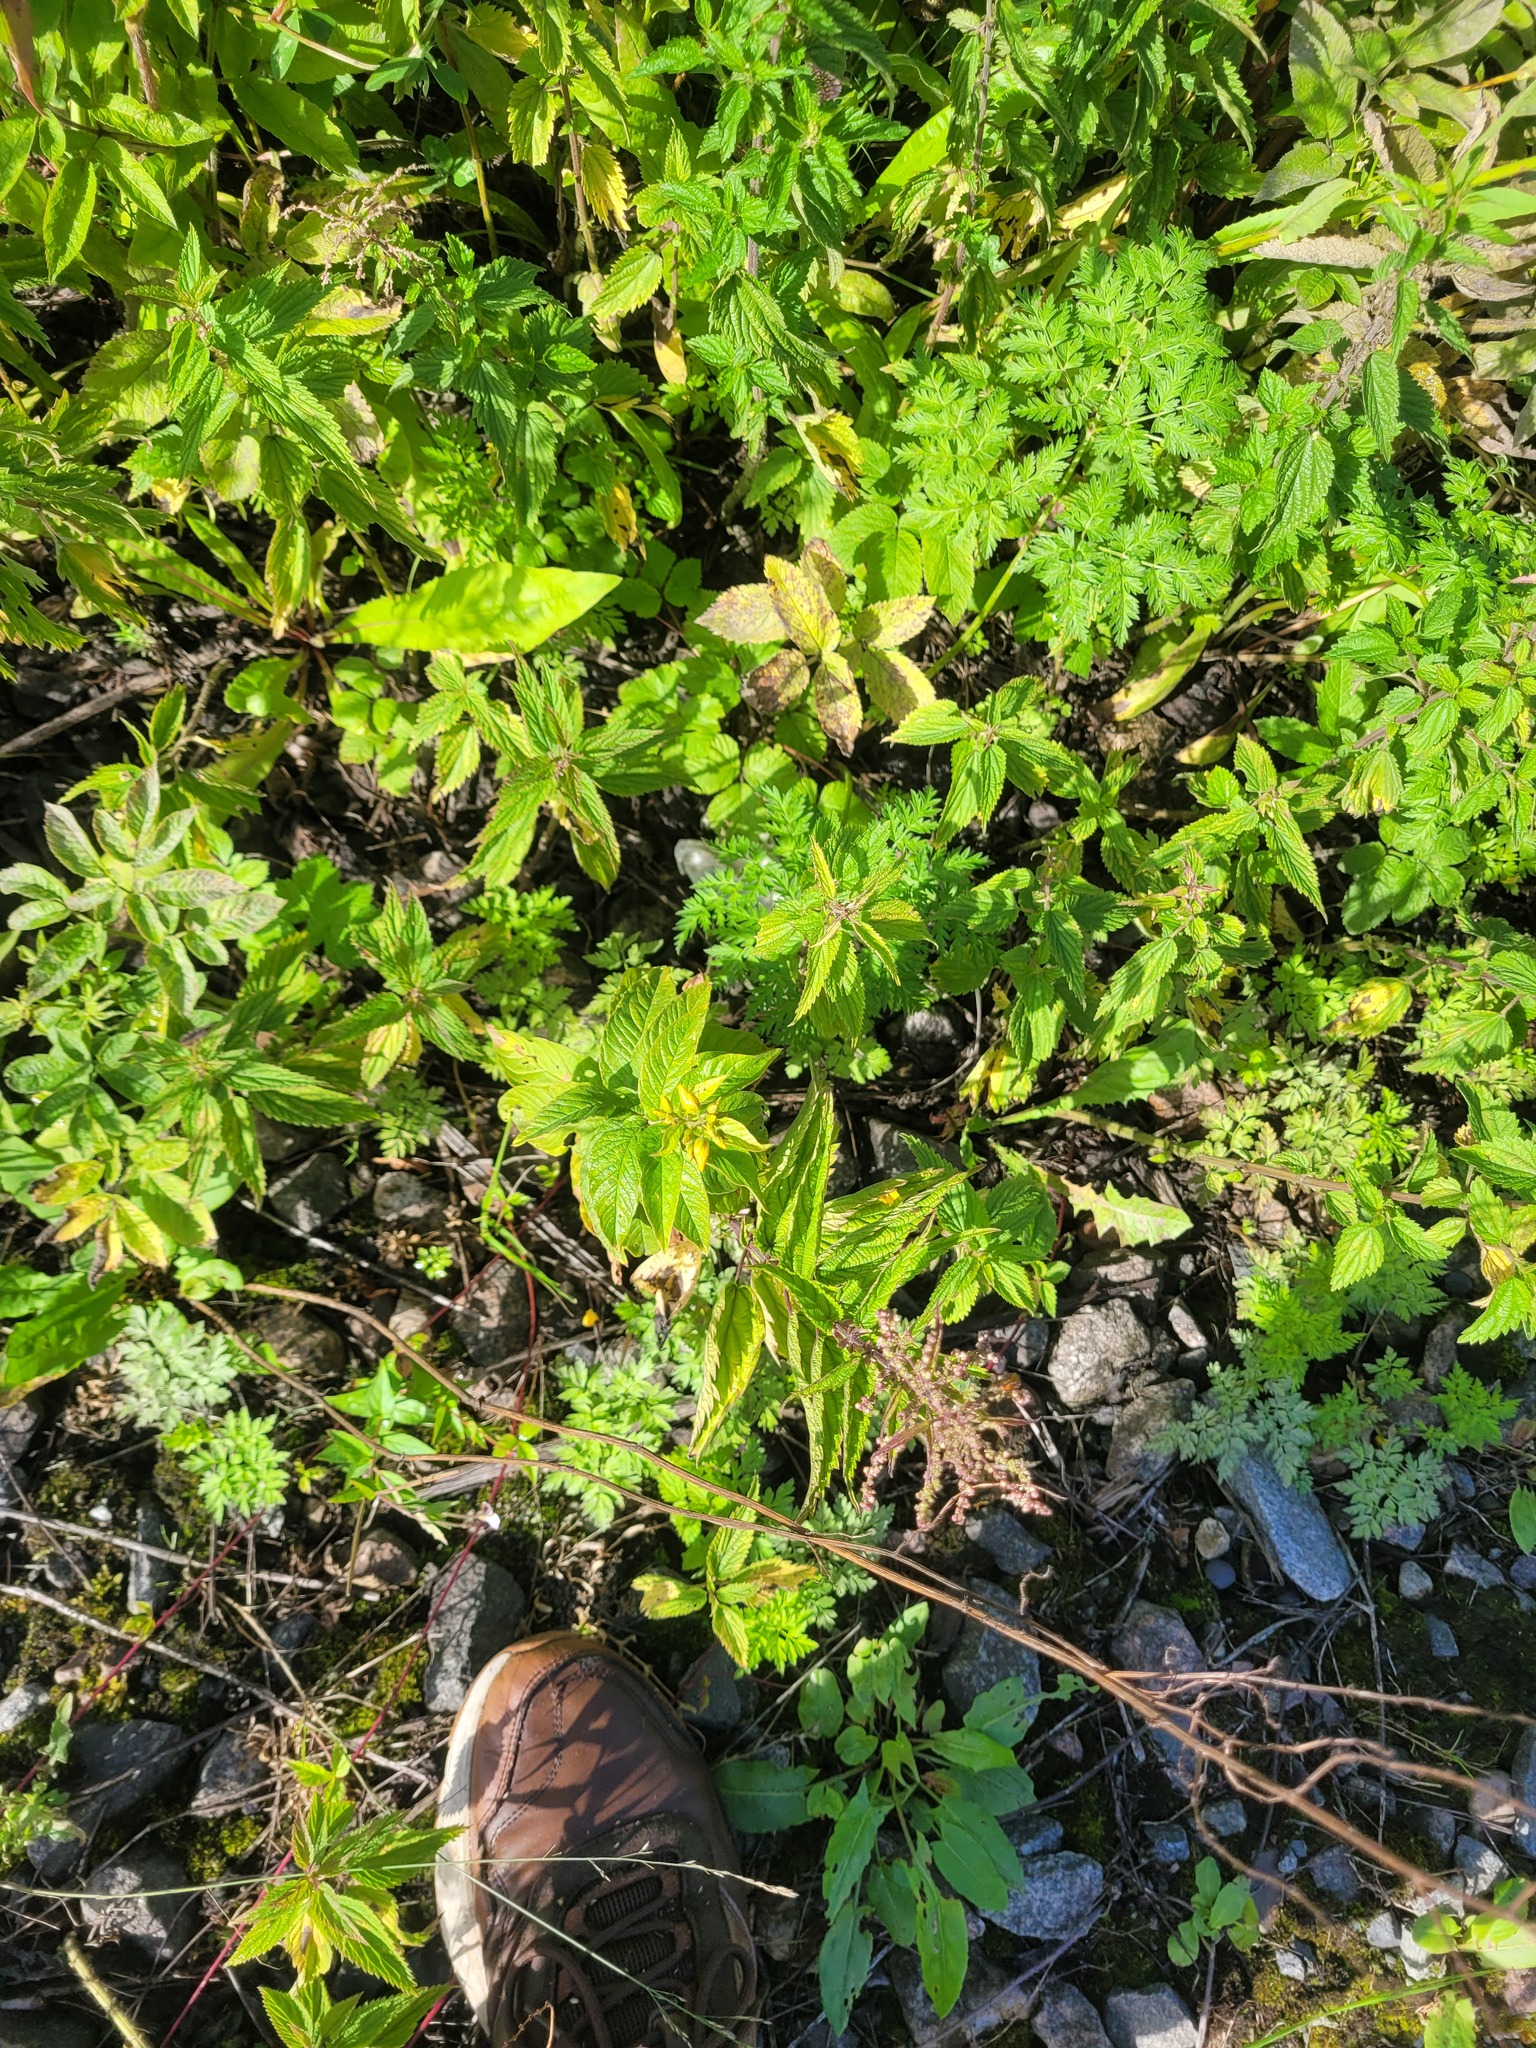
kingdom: Plantae
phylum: Tracheophyta
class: Magnoliopsida
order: Ericales
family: Primulaceae
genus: Lysimachia
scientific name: Lysimachia vulgaris
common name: Yellow loosestrife
